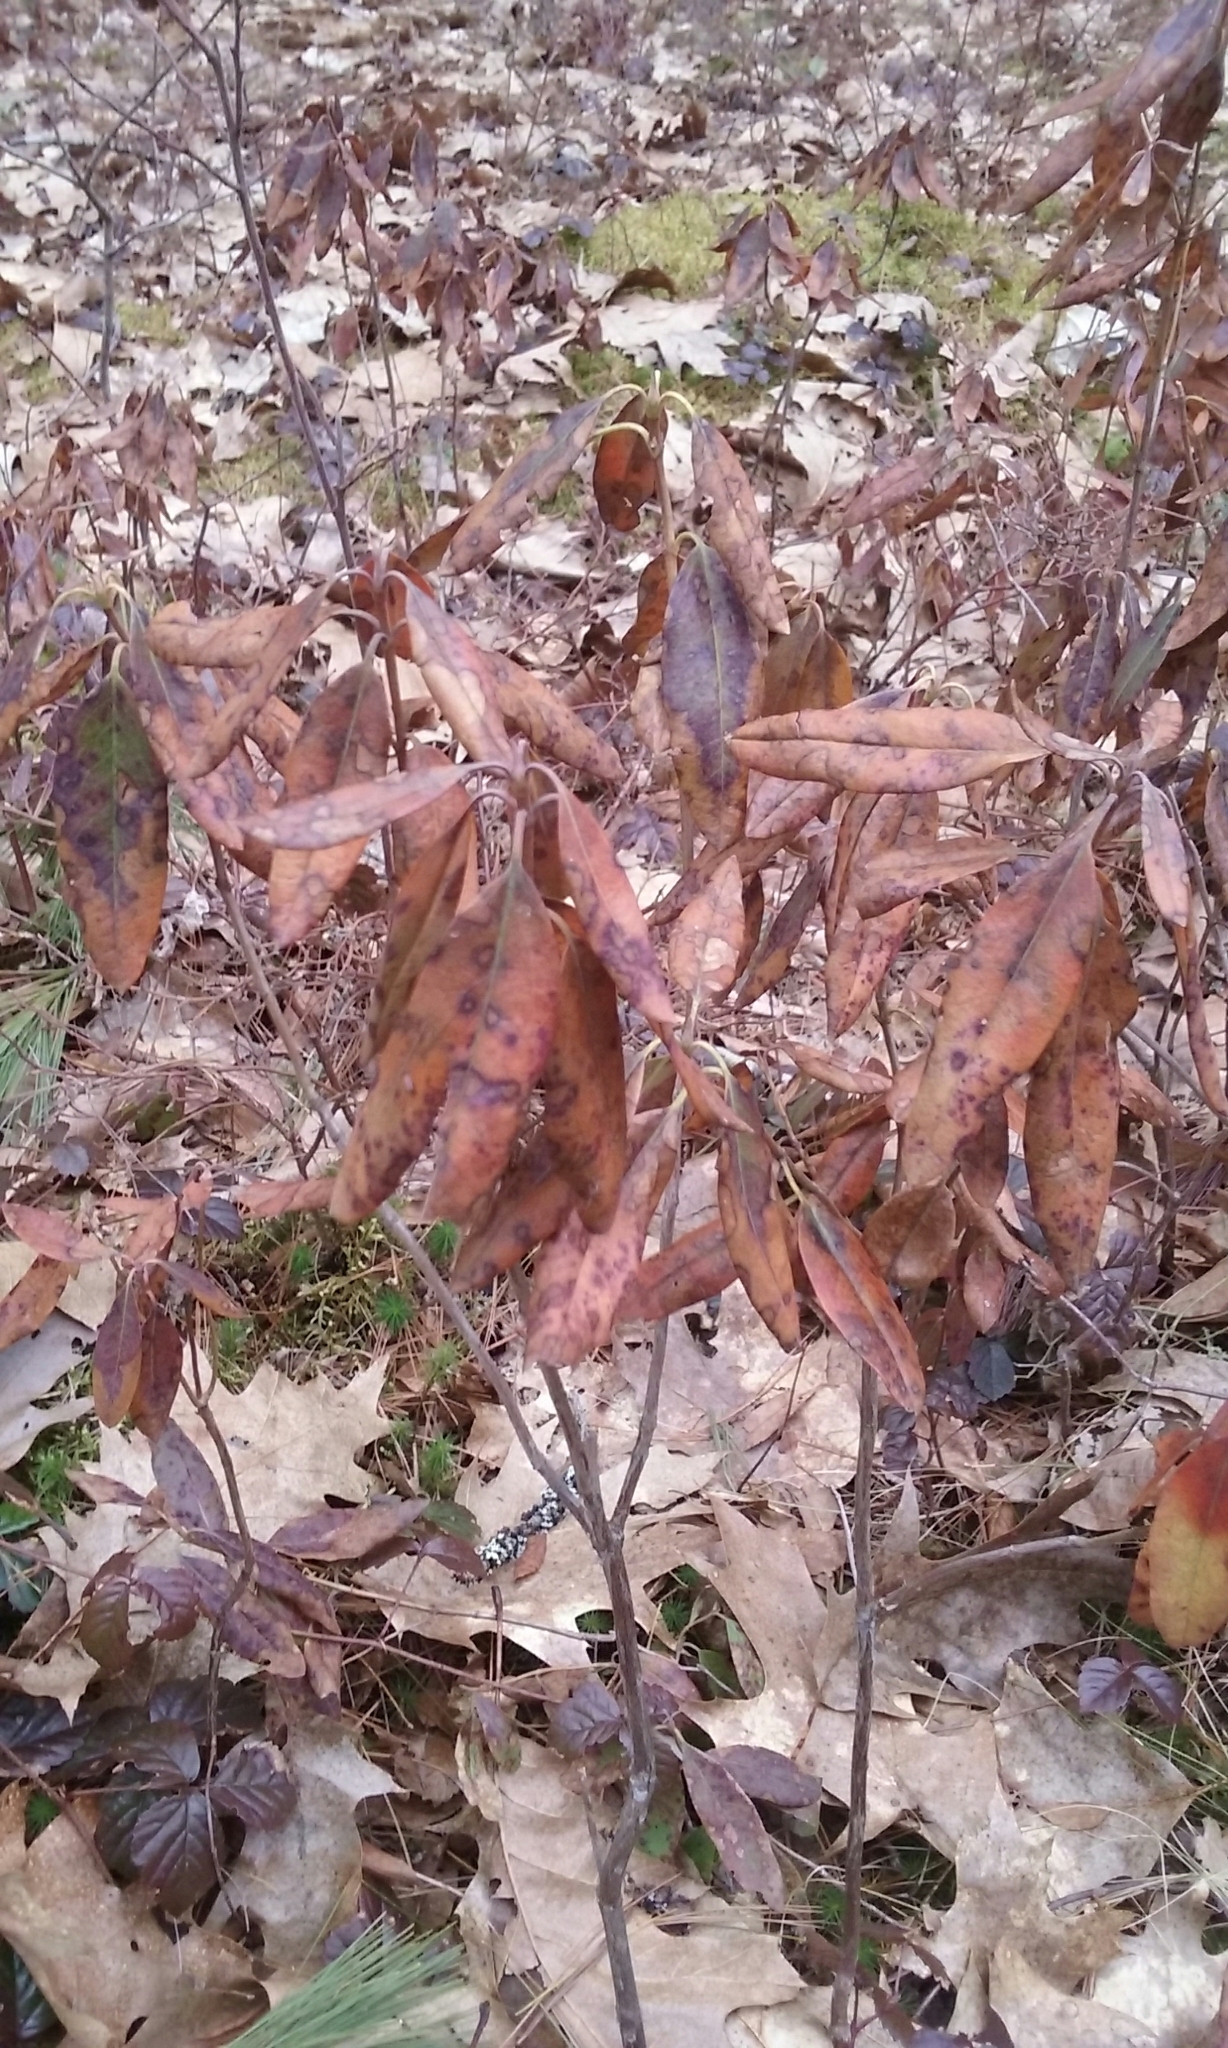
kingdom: Plantae
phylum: Tracheophyta
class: Magnoliopsida
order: Ericales
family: Ericaceae
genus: Kalmia
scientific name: Kalmia angustifolia
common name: Sheep-laurel
